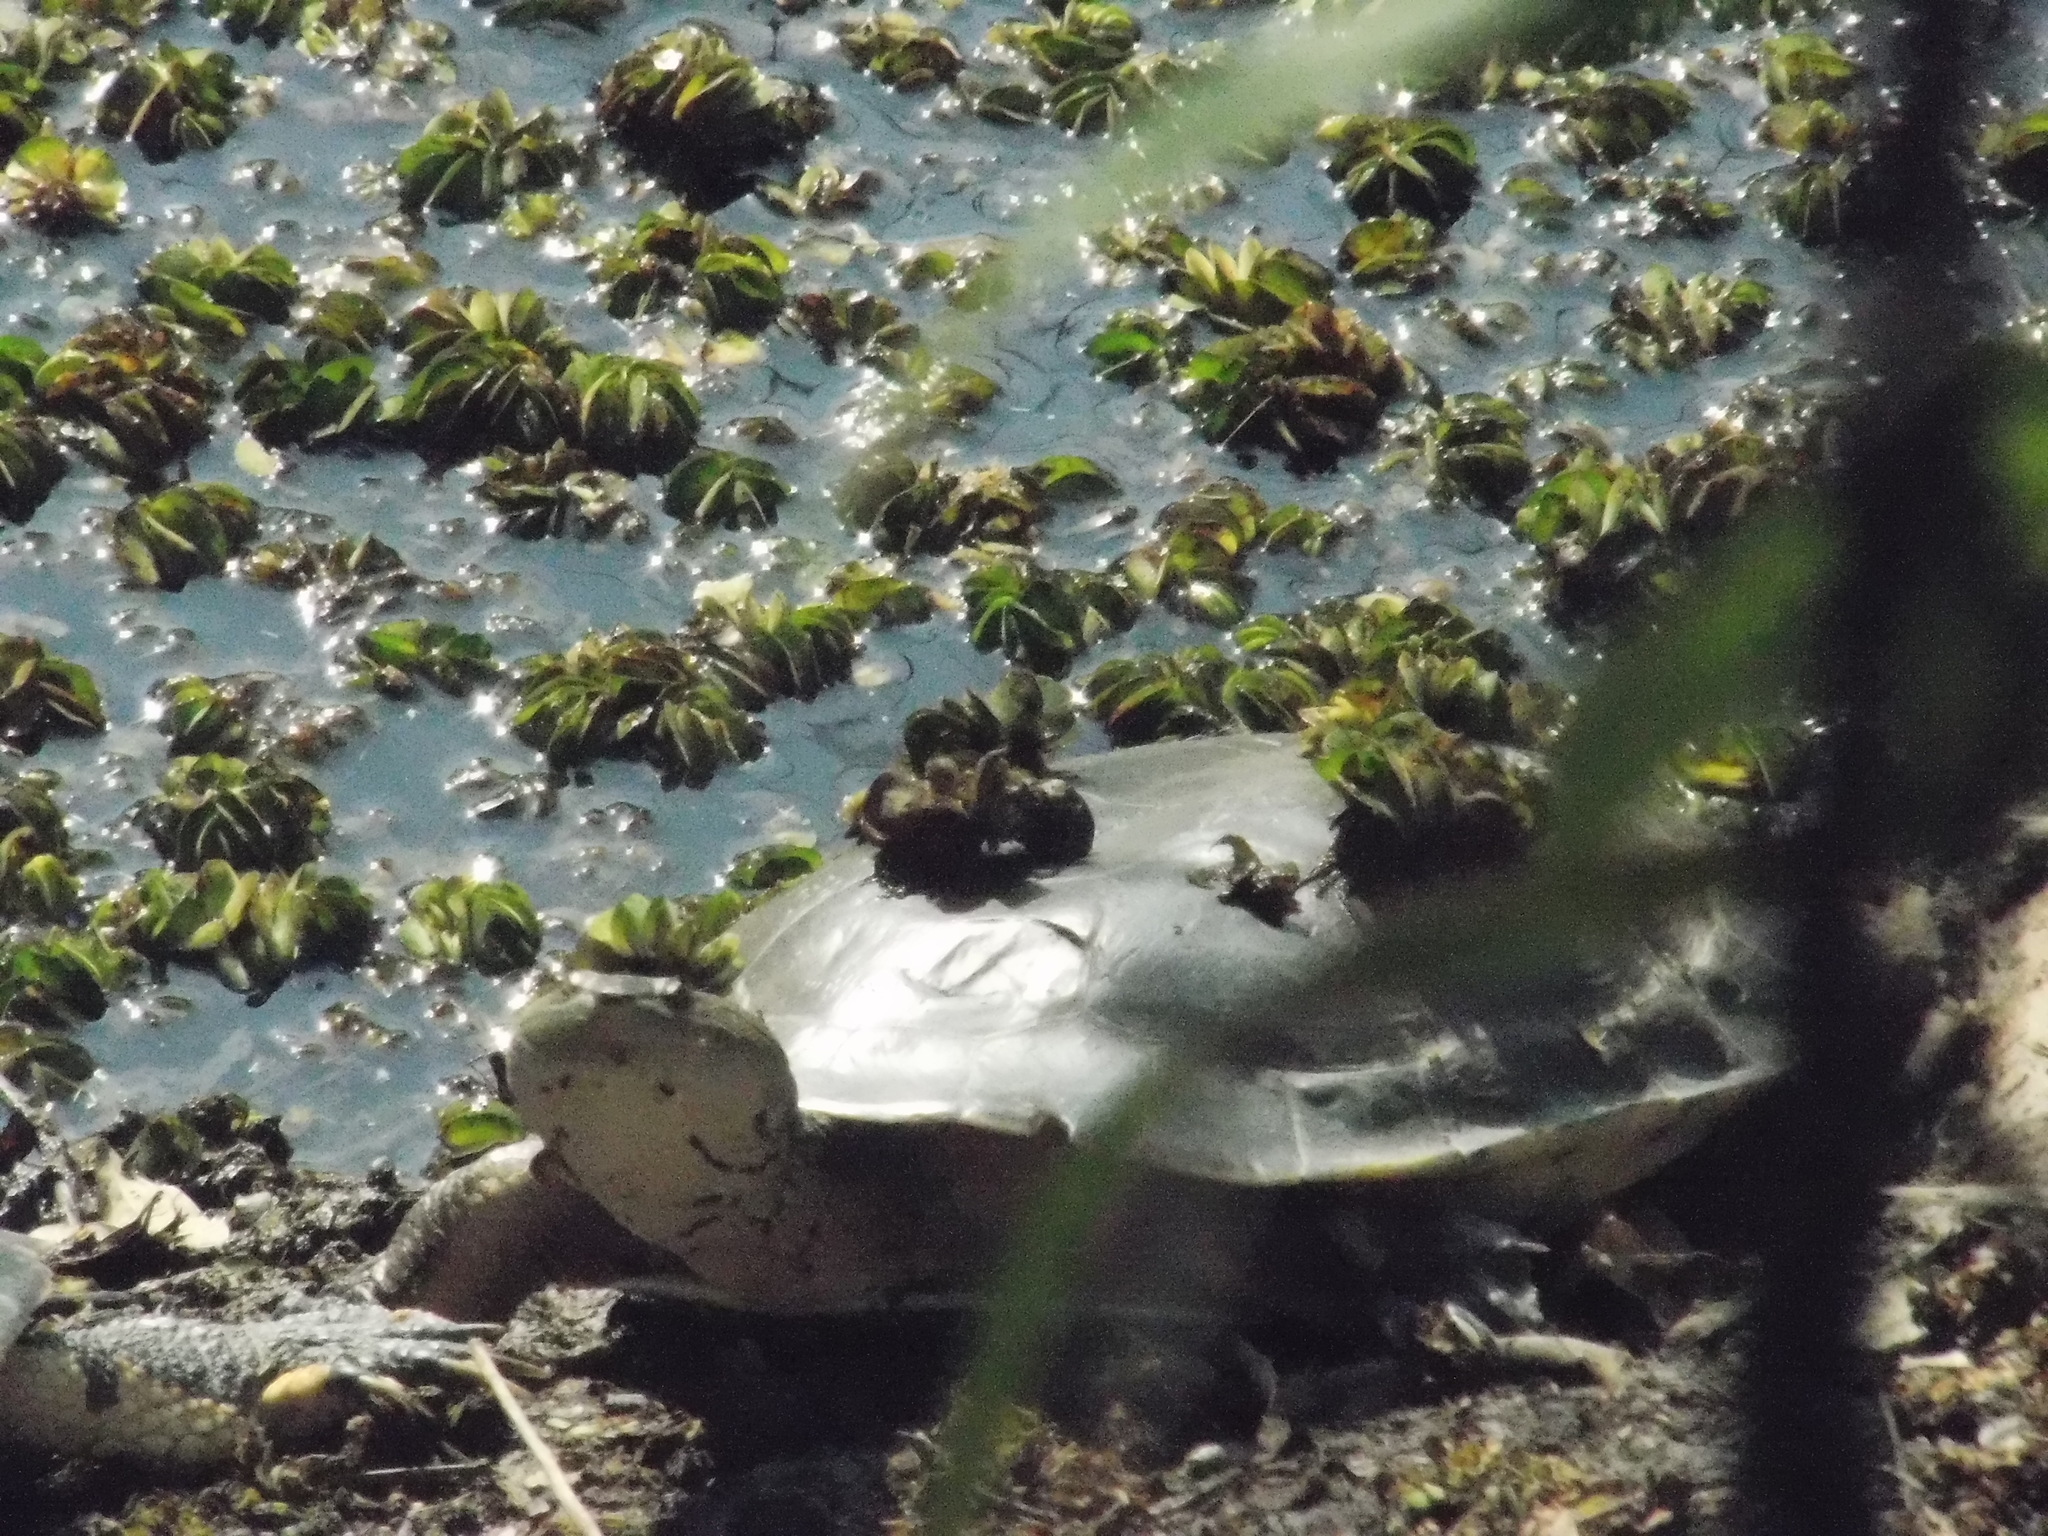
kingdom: Animalia
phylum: Chordata
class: Testudines
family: Chelidae
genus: Phrynops
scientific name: Phrynops hilarii
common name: Side-necked turtle of saint hillaire
